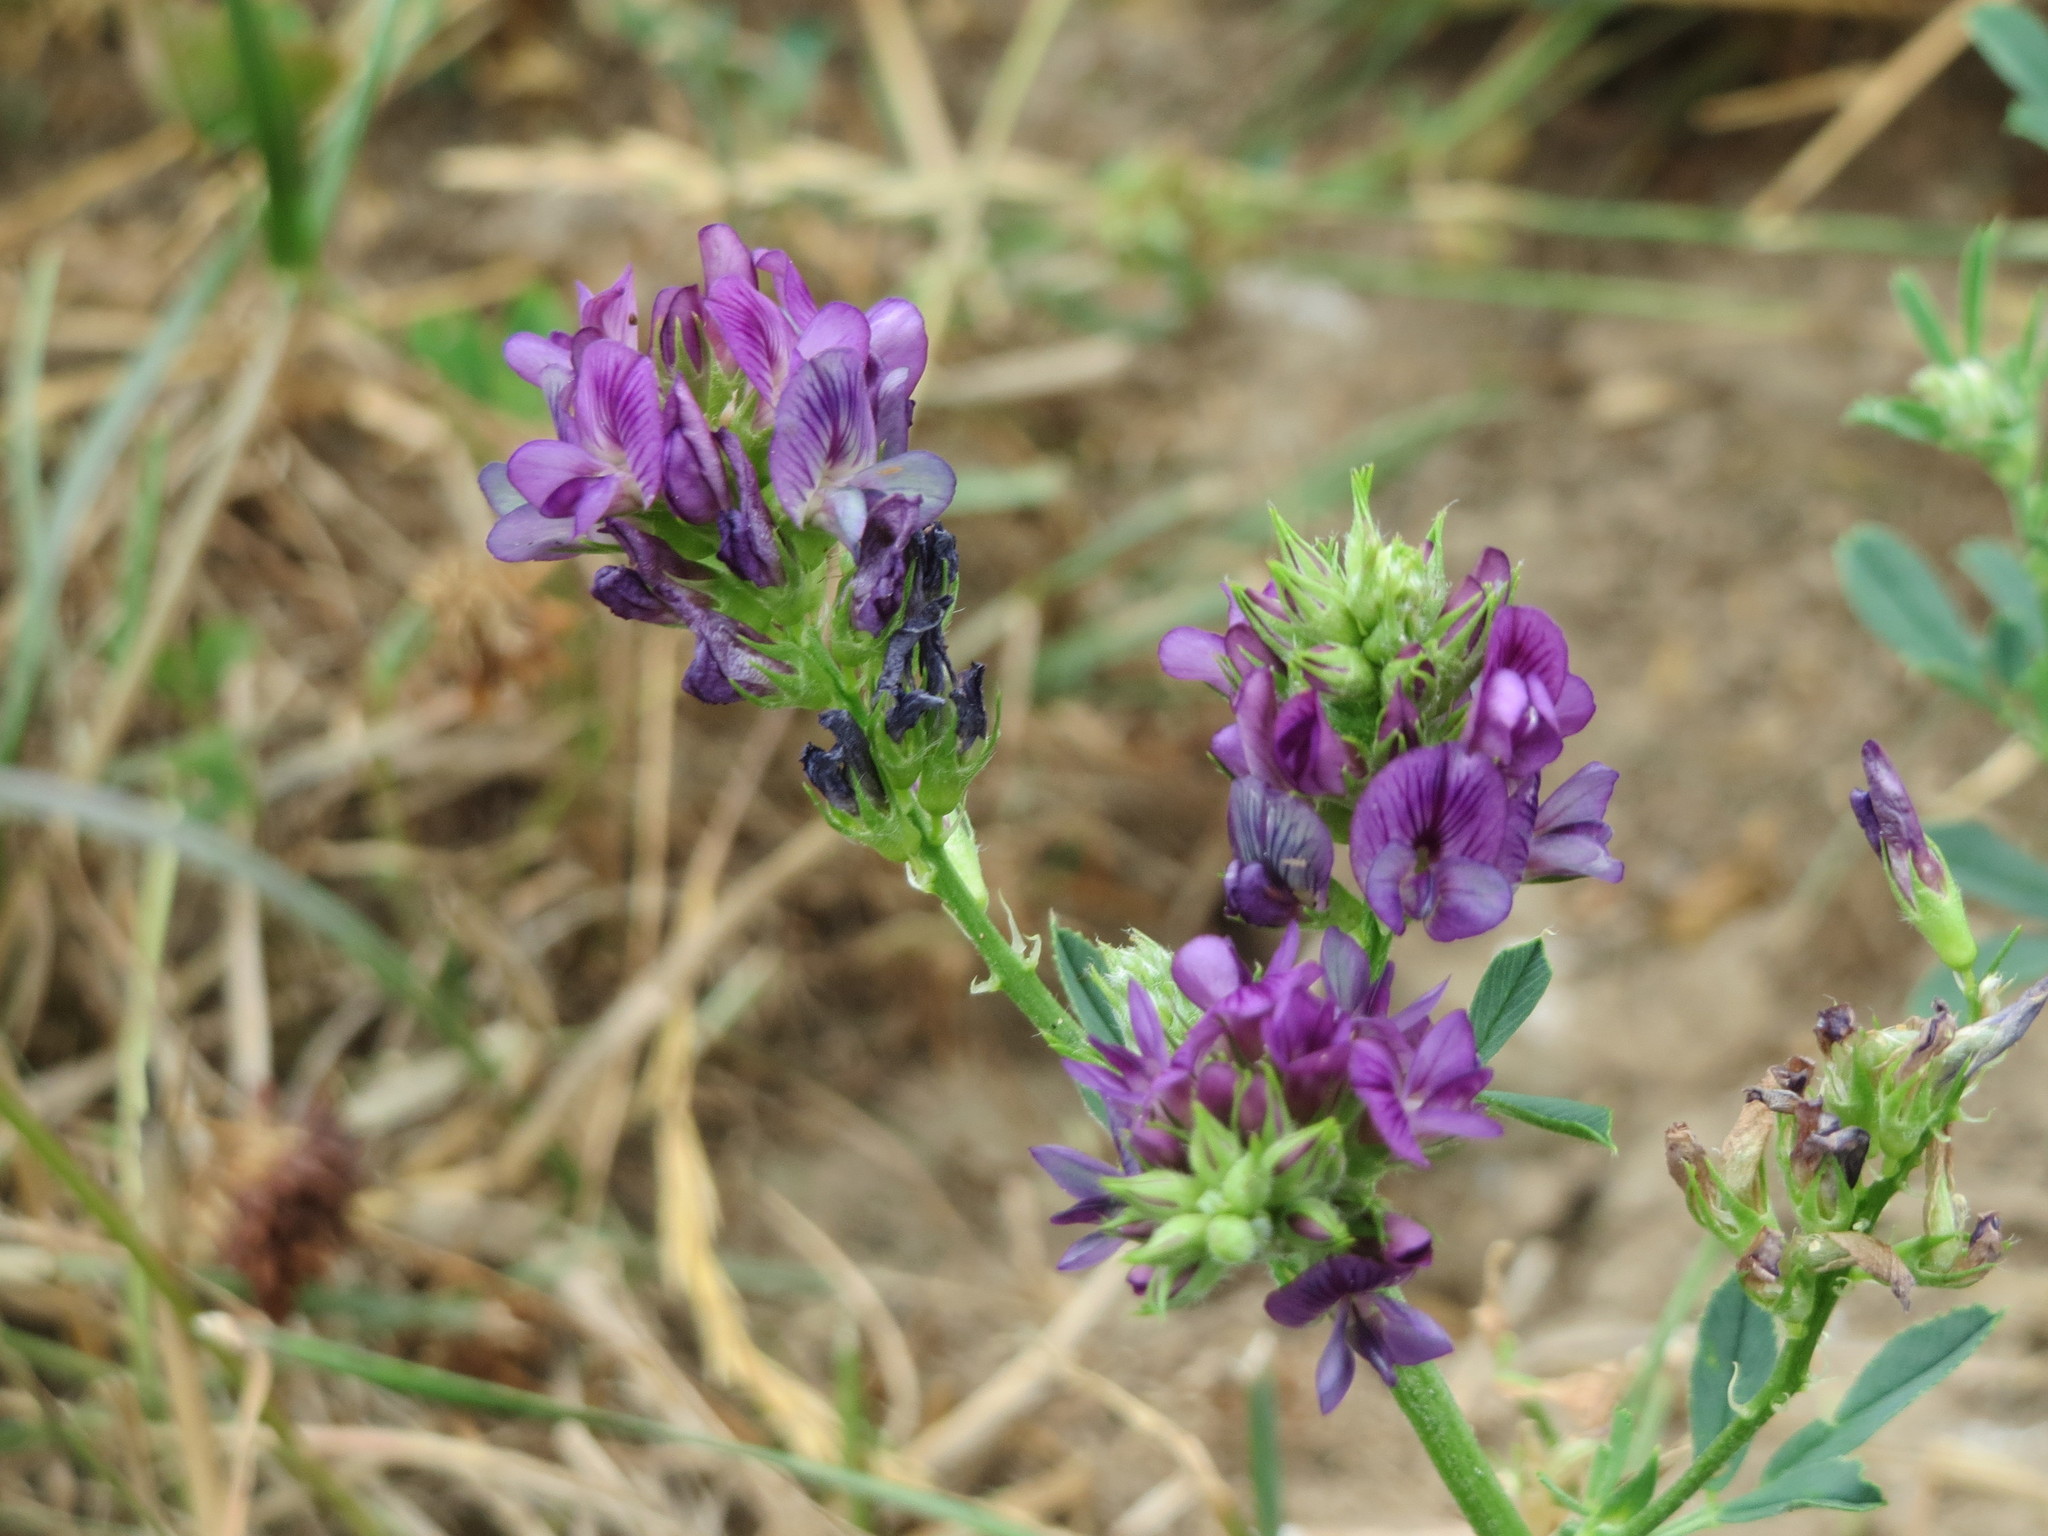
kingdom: Plantae
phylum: Tracheophyta
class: Magnoliopsida
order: Fabales
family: Fabaceae
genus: Medicago
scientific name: Medicago sativa
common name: Alfalfa
